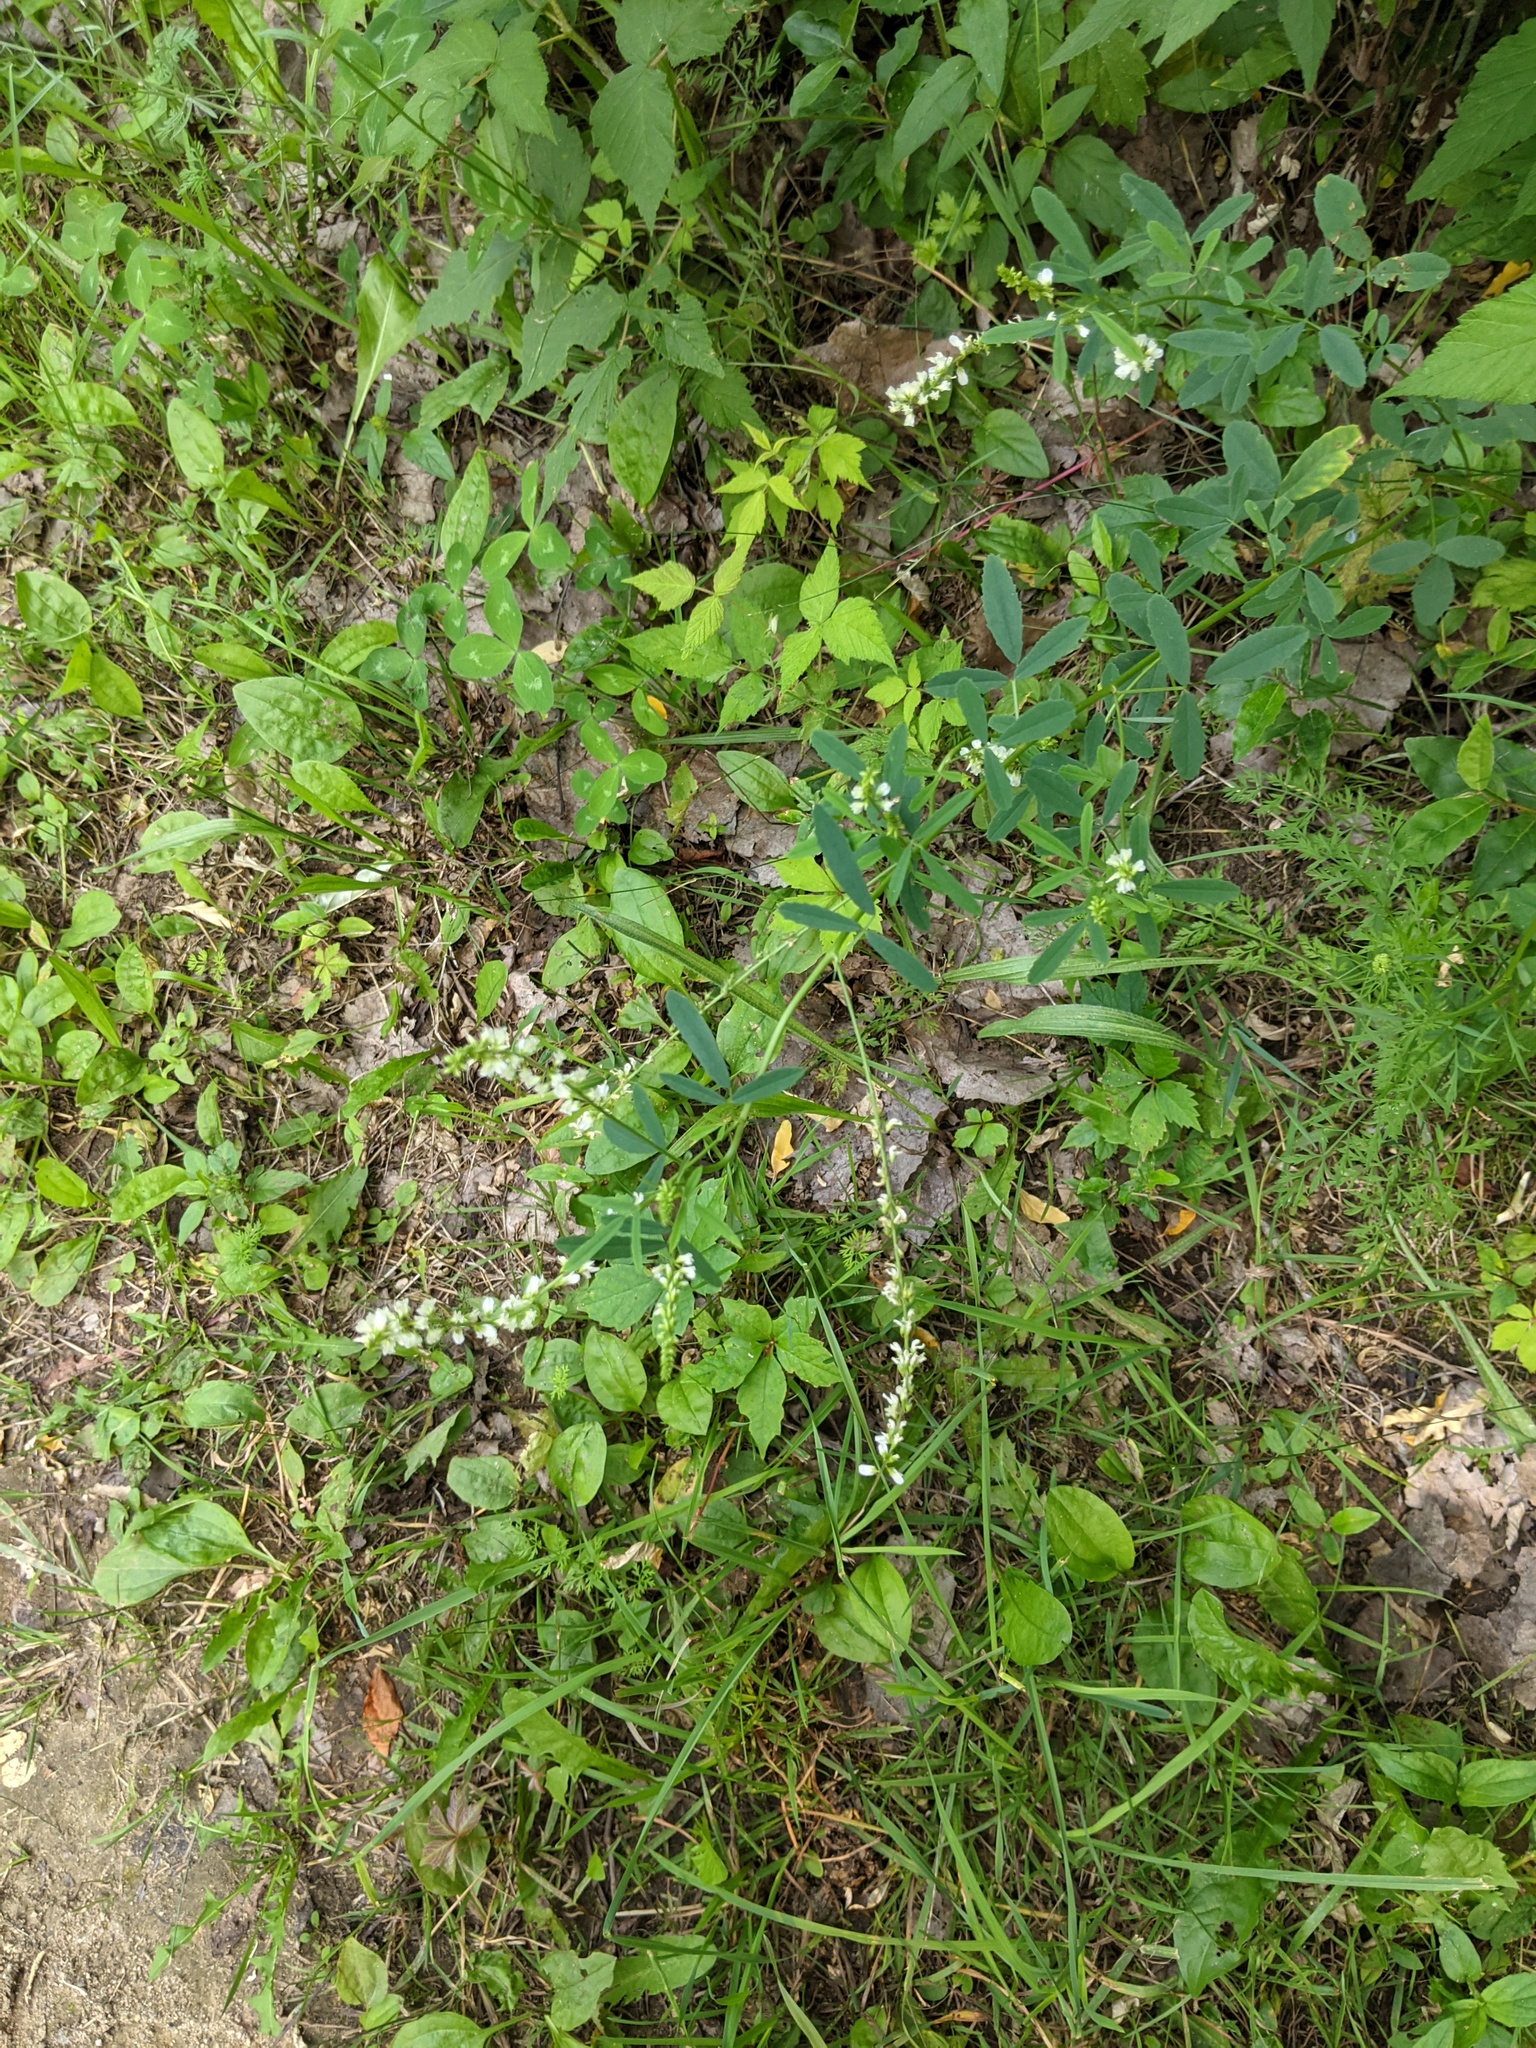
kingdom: Plantae
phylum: Tracheophyta
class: Magnoliopsida
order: Fabales
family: Fabaceae
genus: Melilotus
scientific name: Melilotus albus
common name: White melilot
